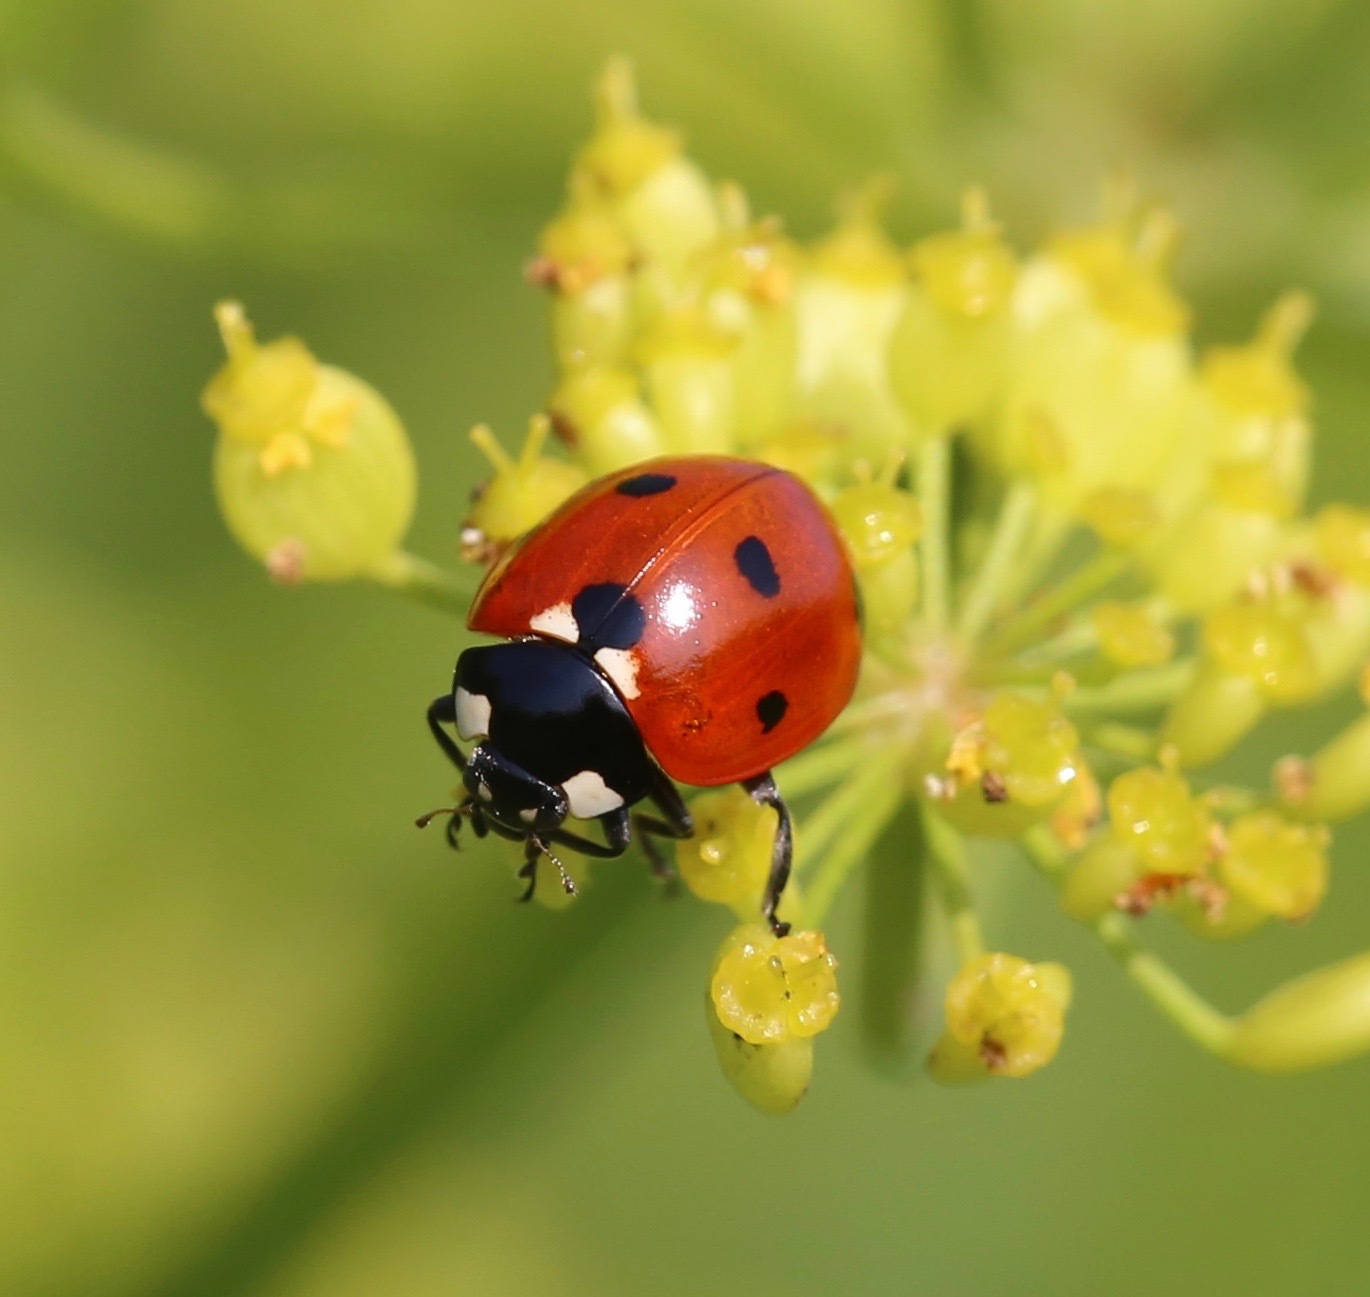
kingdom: Animalia
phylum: Arthropoda
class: Insecta
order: Coleoptera
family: Coccinellidae
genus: Coccinella
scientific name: Coccinella septempunctata
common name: Sevenspotted lady beetle
